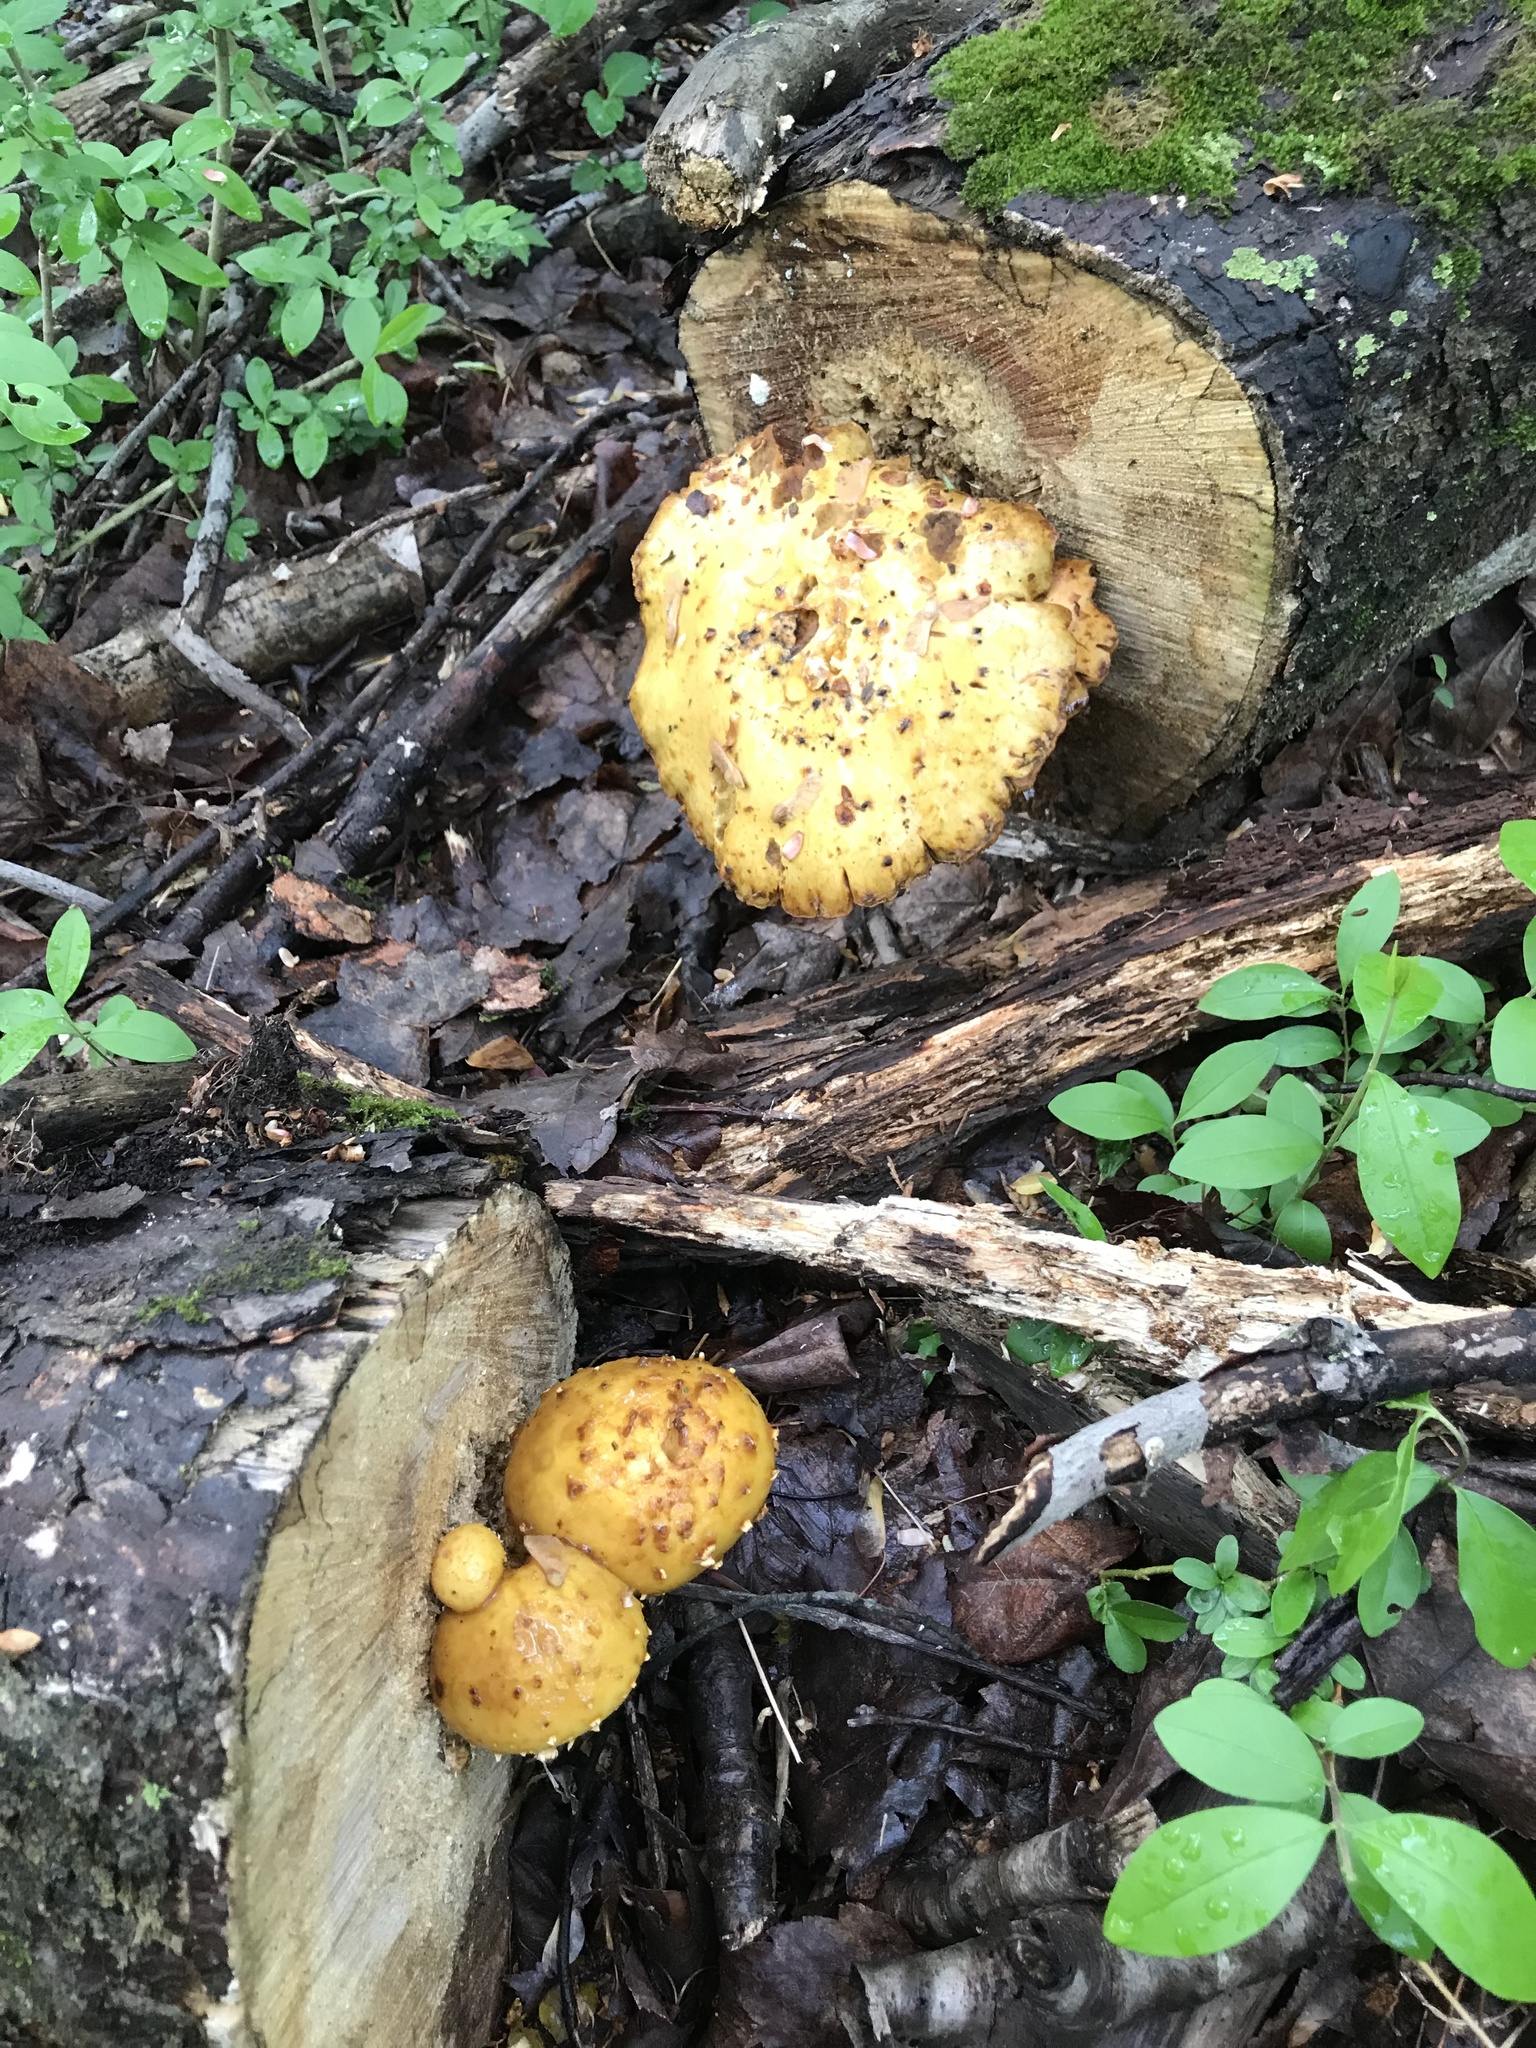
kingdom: Fungi
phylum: Basidiomycota
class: Agaricomycetes
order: Agaricales
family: Strophariaceae
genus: Pholiota
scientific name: Pholiota aurivella
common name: Golden scalycap
